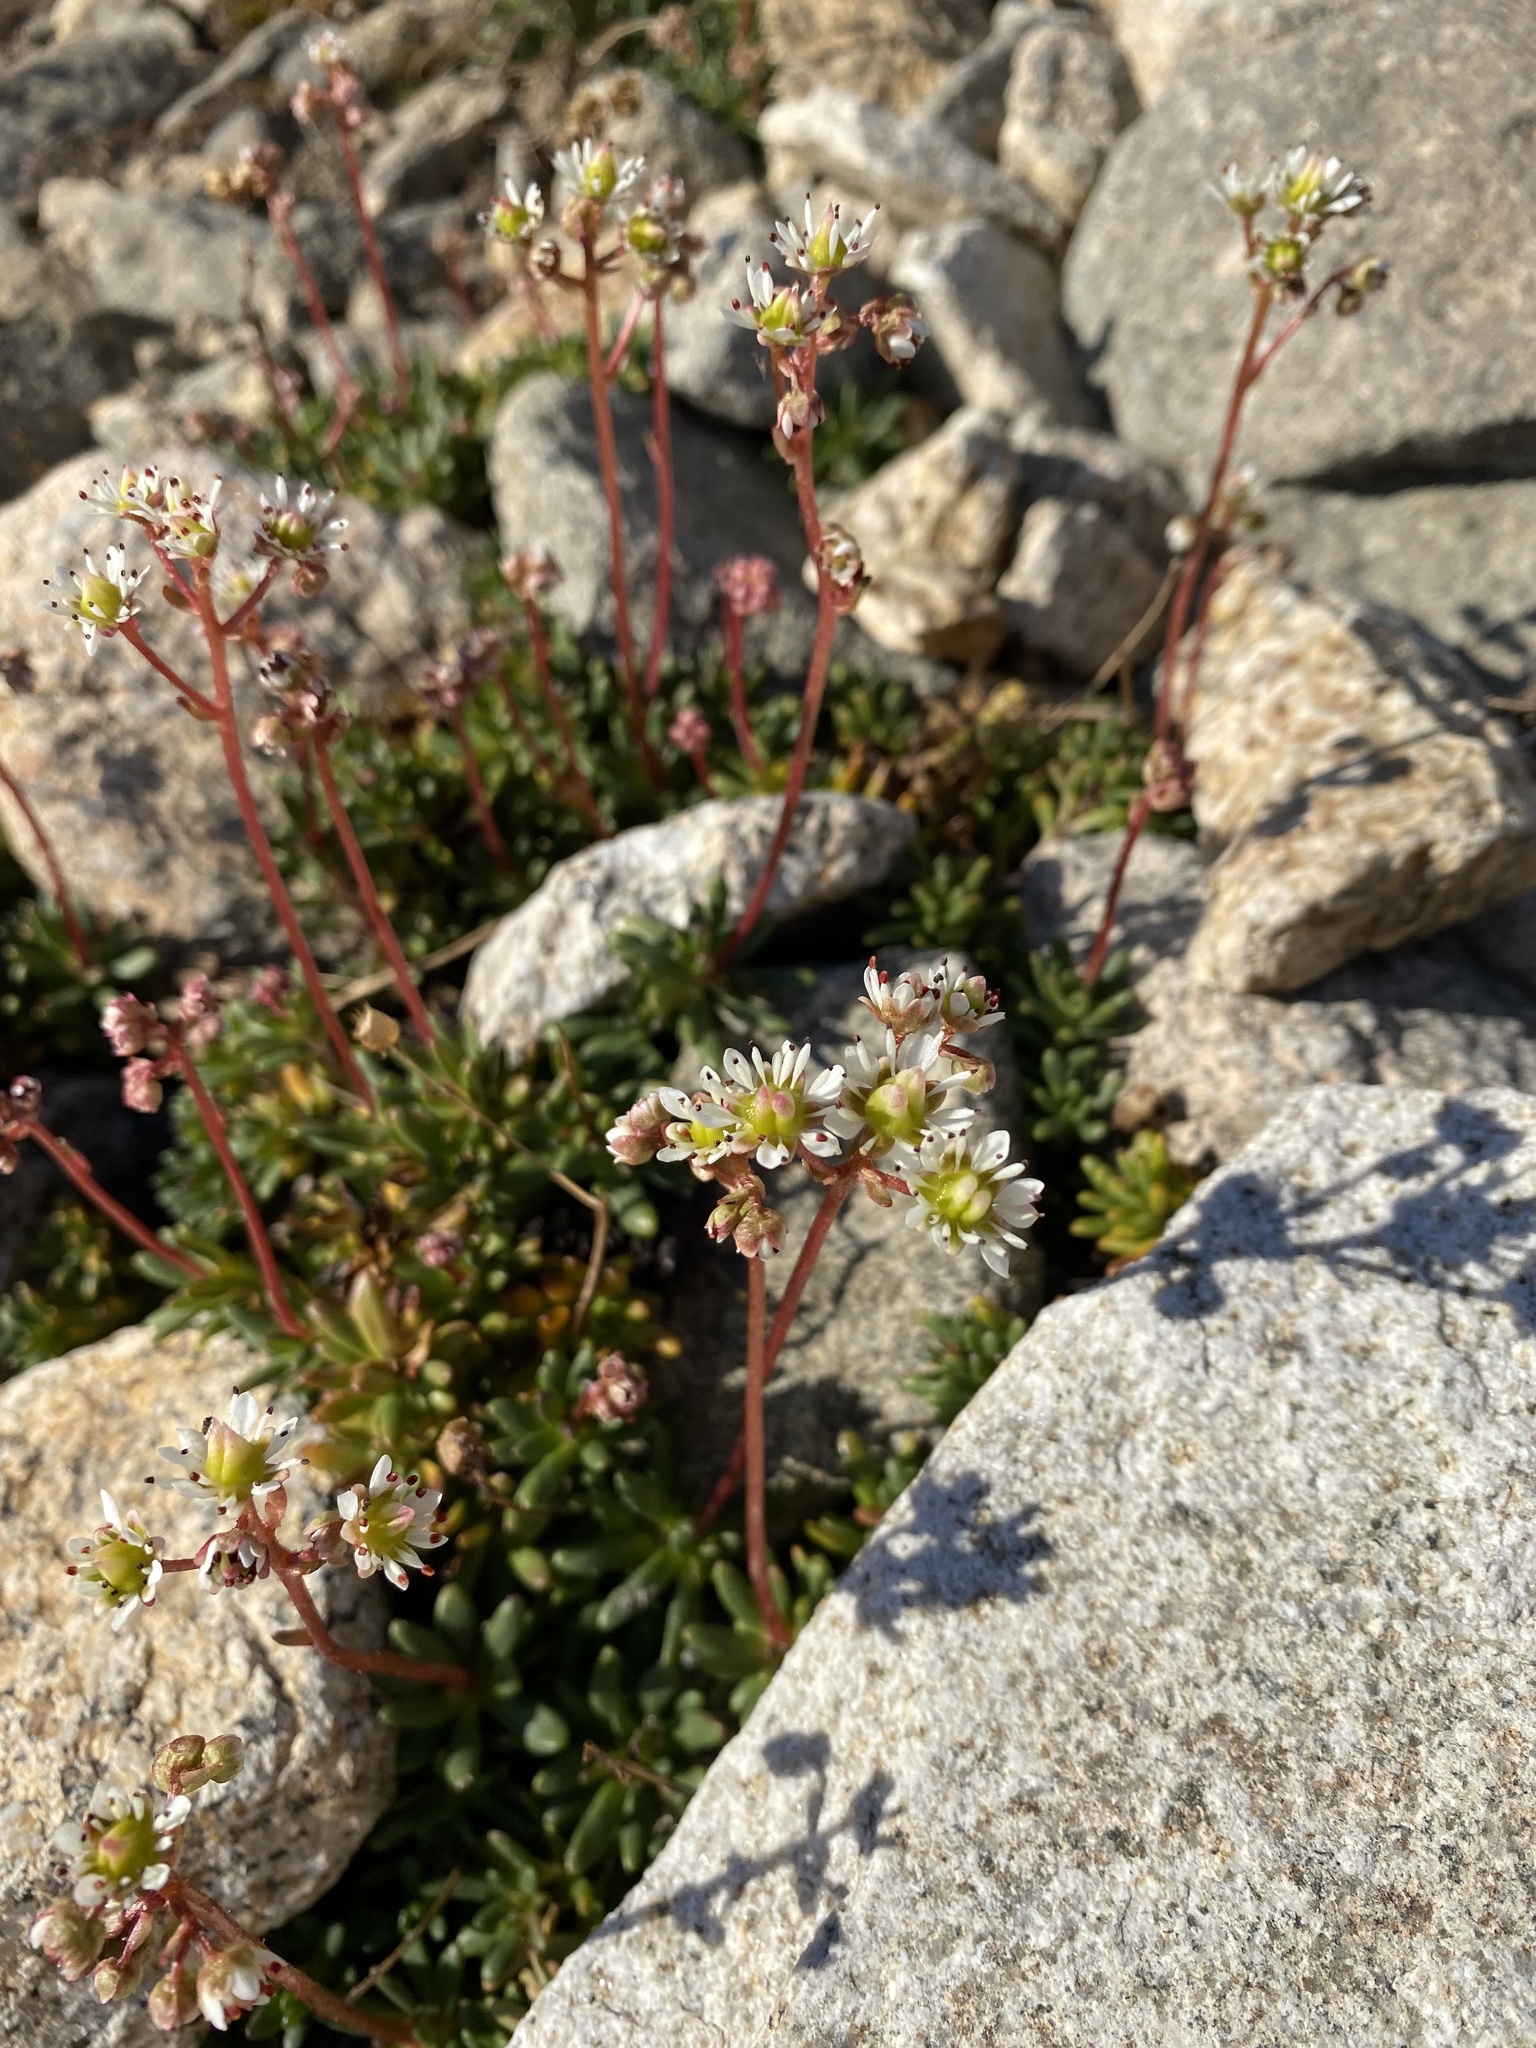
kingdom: Plantae
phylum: Tracheophyta
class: Magnoliopsida
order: Saxifragales
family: Saxifragaceae
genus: Micranthes
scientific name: Micranthes tolmiei
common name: Tolmie's saxifrage
